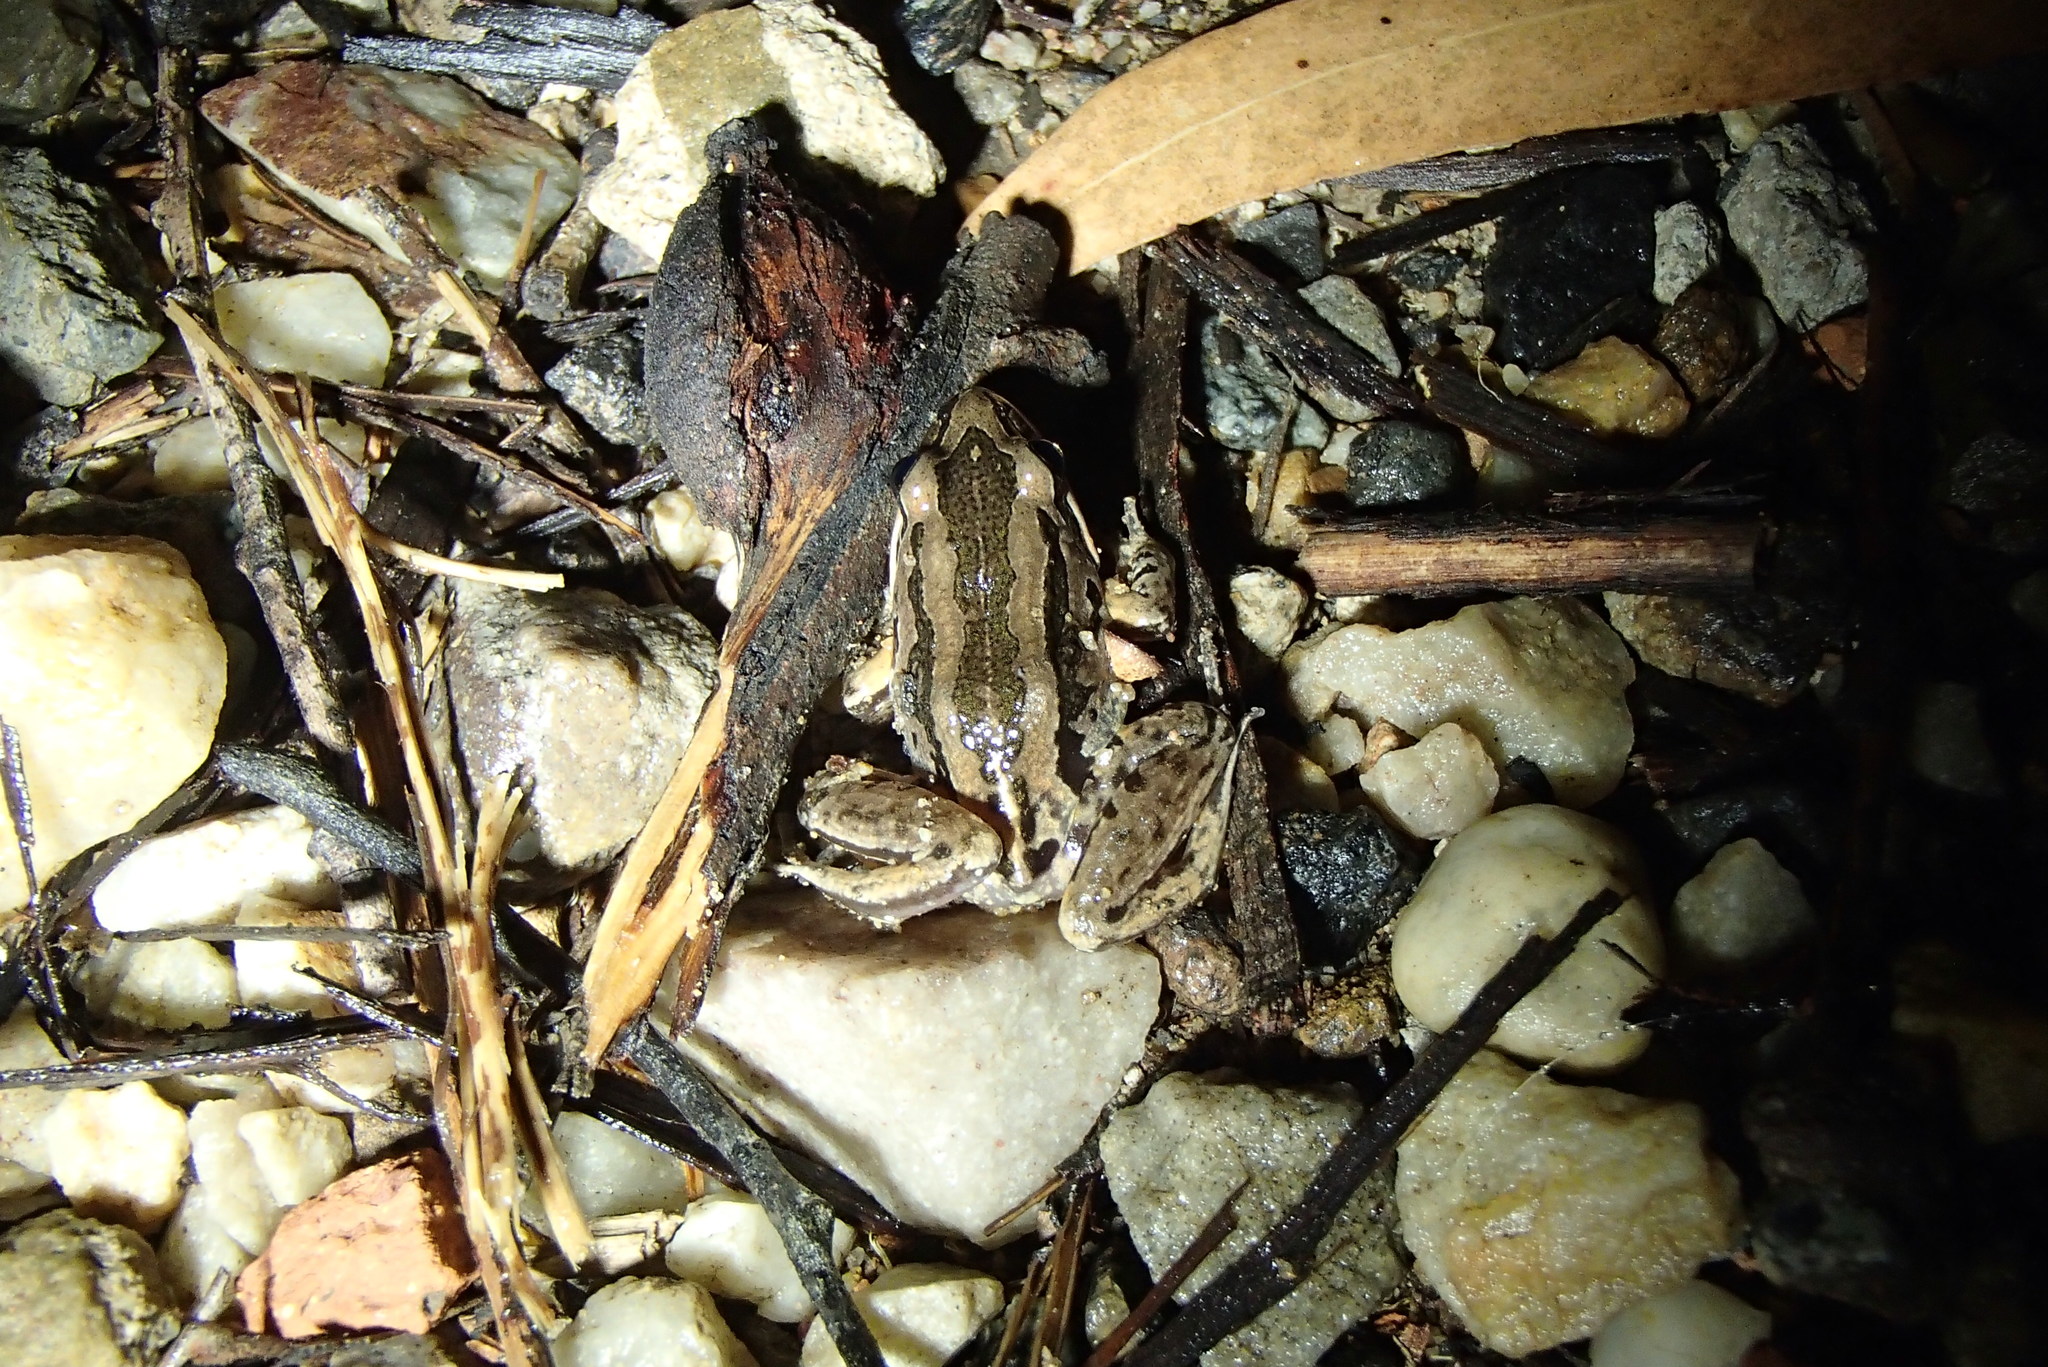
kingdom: Animalia
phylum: Chordata
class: Amphibia
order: Anura
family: Limnodynastidae
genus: Limnodynastes
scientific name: Limnodynastes peronii
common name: Brown frog
